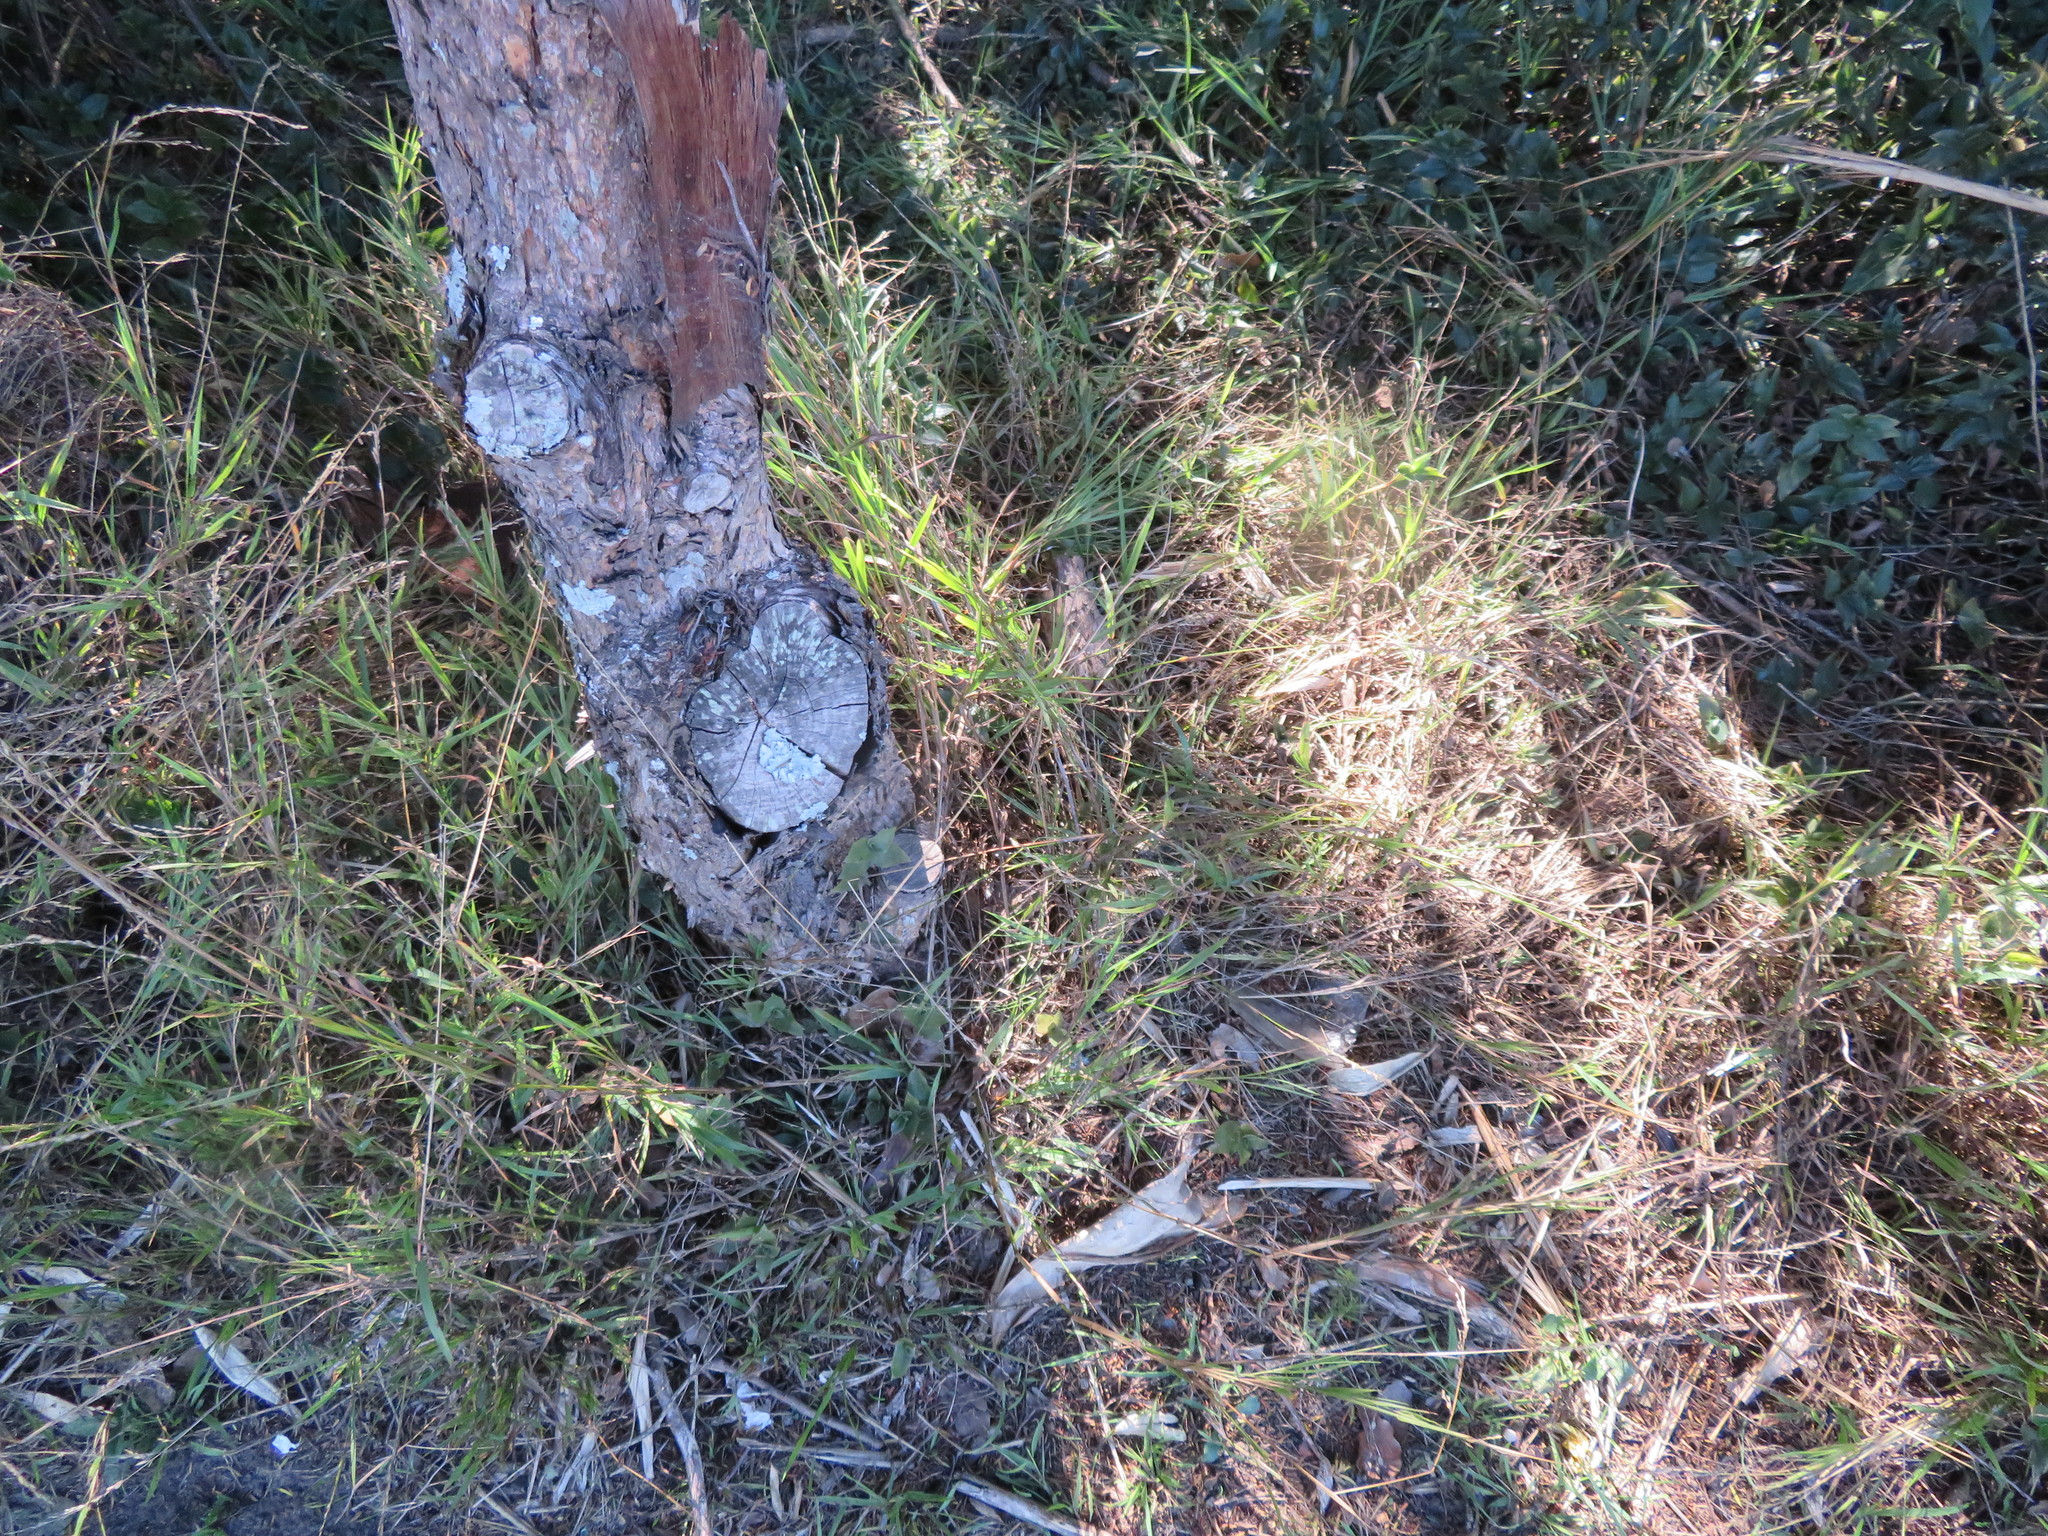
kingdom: Plantae
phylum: Tracheophyta
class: Liliopsida
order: Poales
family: Poaceae
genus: Ehrharta
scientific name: Ehrharta erecta
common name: Panic veldtgrass
